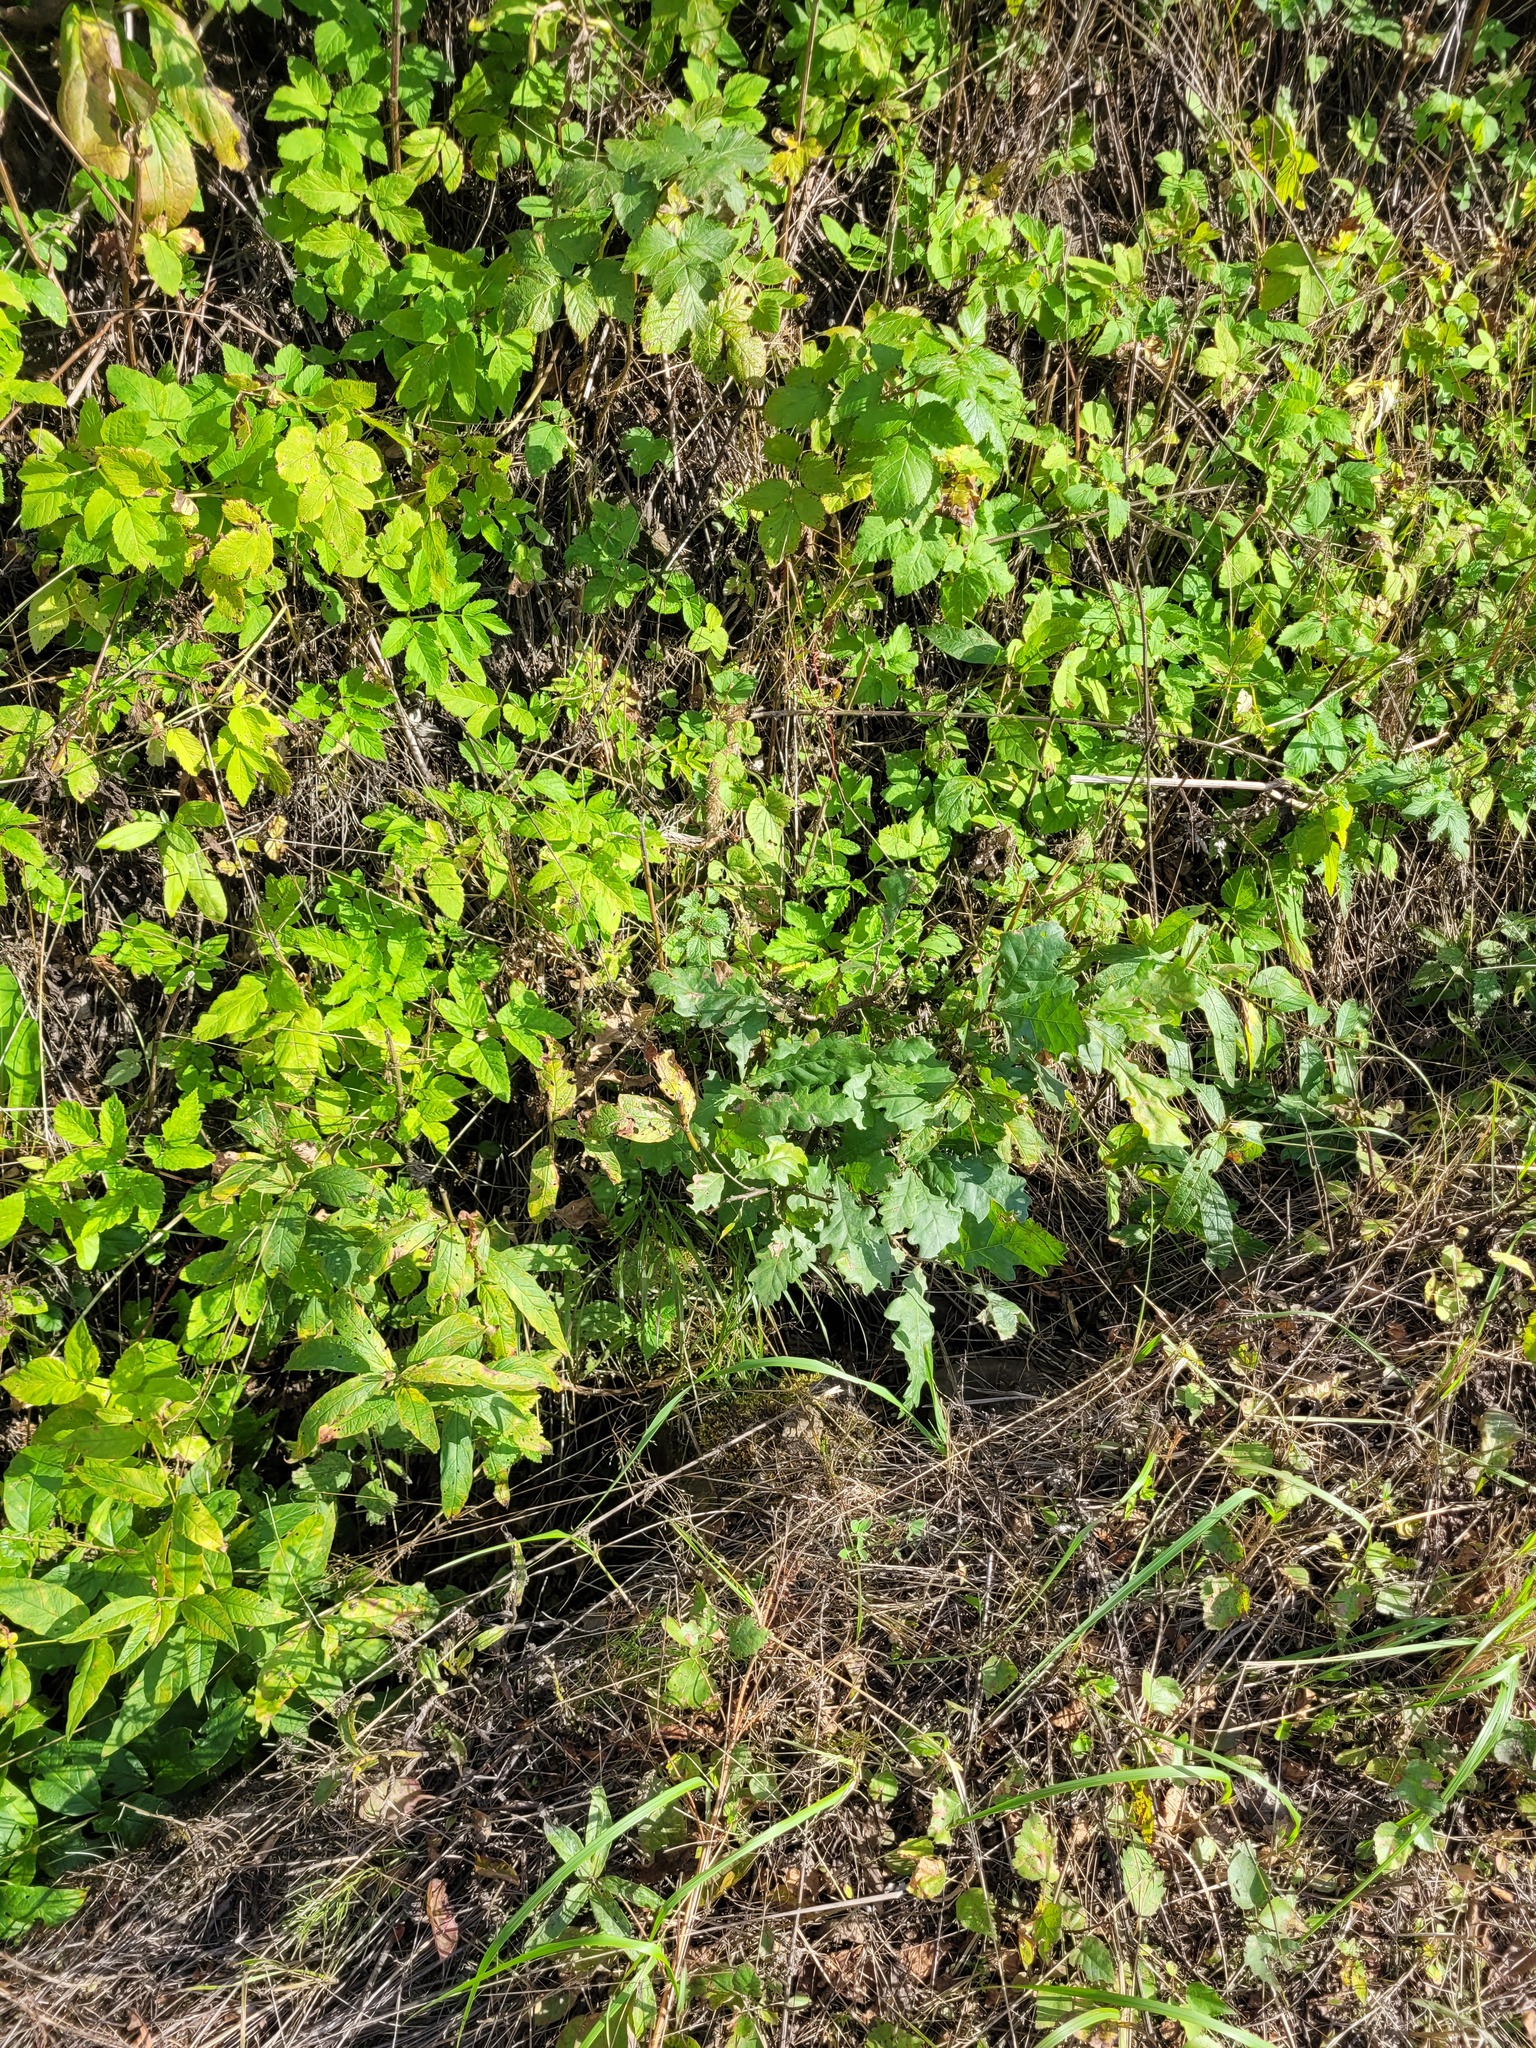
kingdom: Plantae
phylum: Tracheophyta
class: Magnoliopsida
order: Fagales
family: Fagaceae
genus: Quercus
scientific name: Quercus robur
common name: Pedunculate oak
